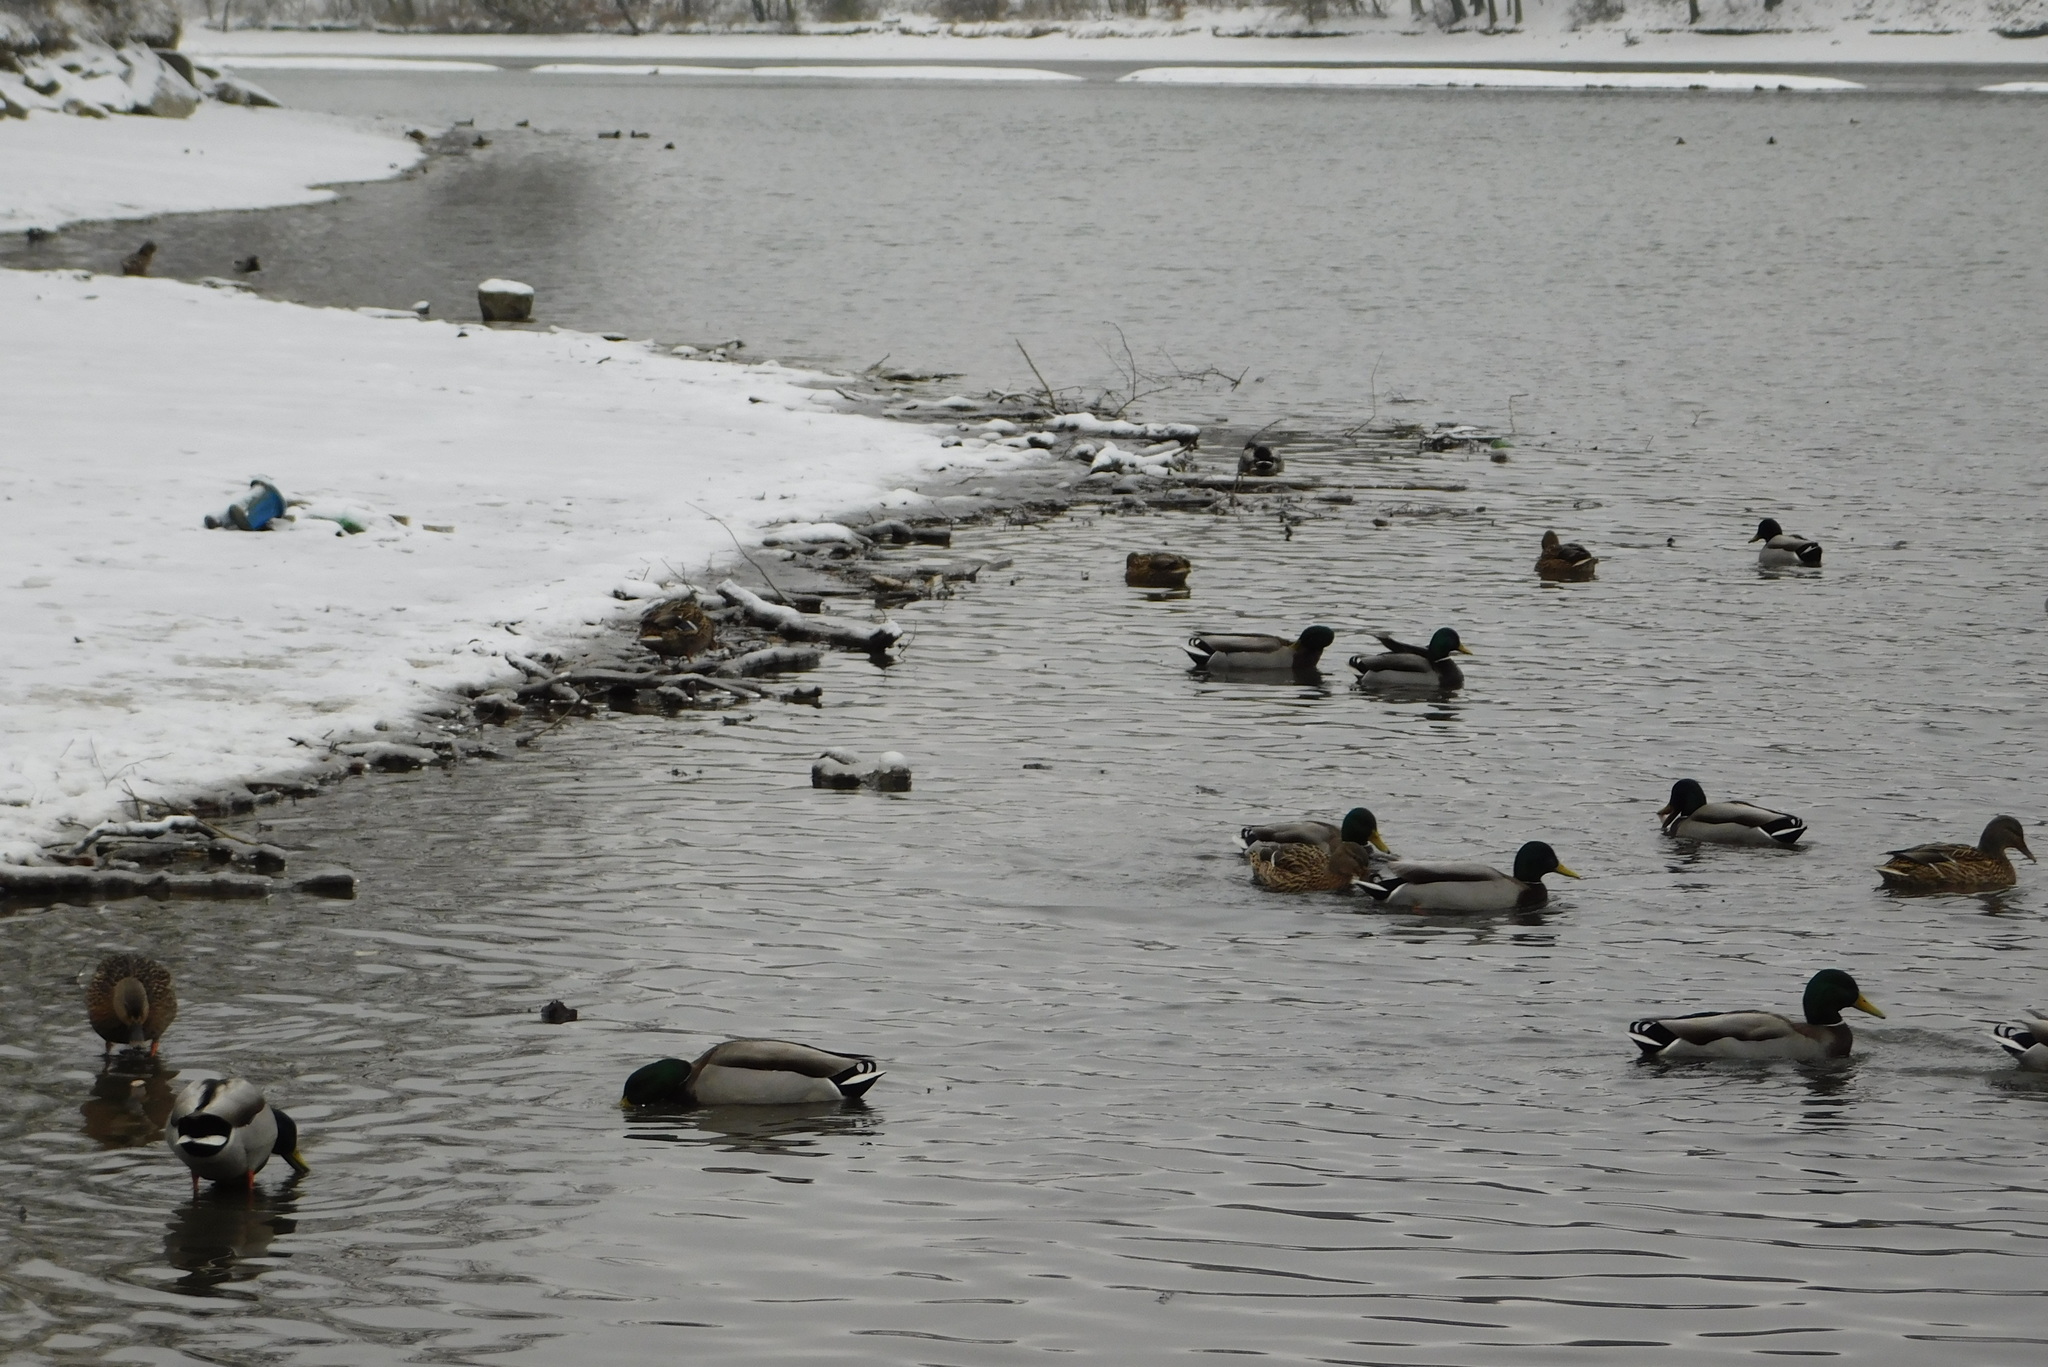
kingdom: Animalia
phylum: Chordata
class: Aves
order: Anseriformes
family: Anatidae
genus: Anas
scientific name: Anas platyrhynchos
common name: Mallard
